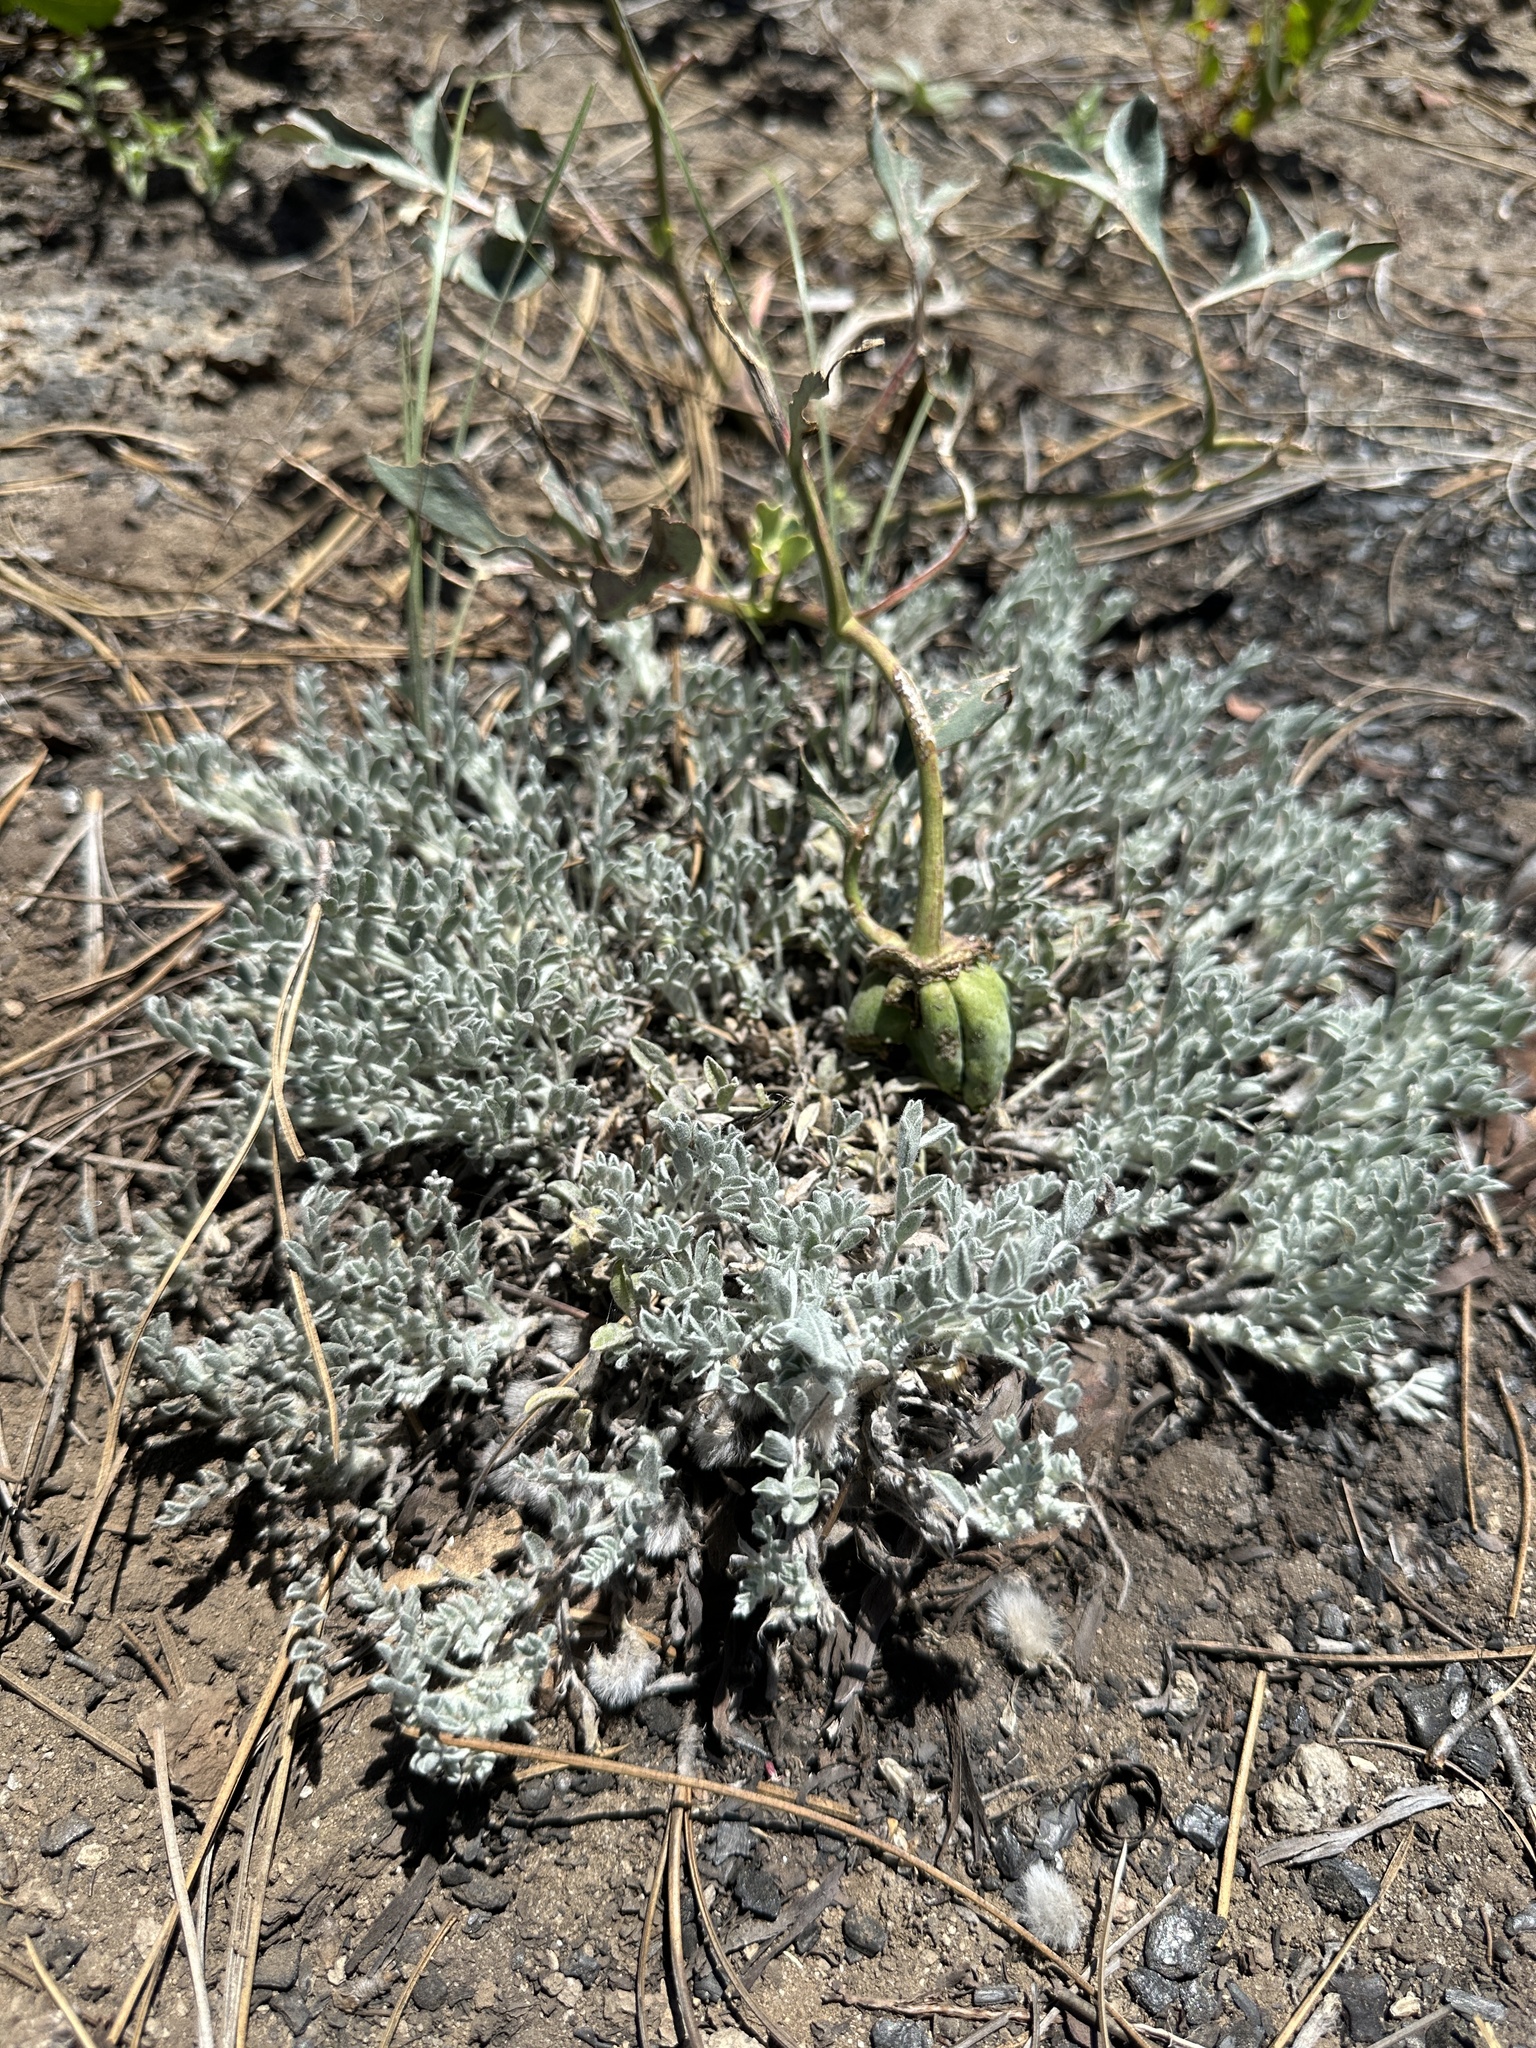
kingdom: Plantae
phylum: Tracheophyta
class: Magnoliopsida
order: Fabales
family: Fabaceae
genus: Astragalus
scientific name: Astragalus purshii
